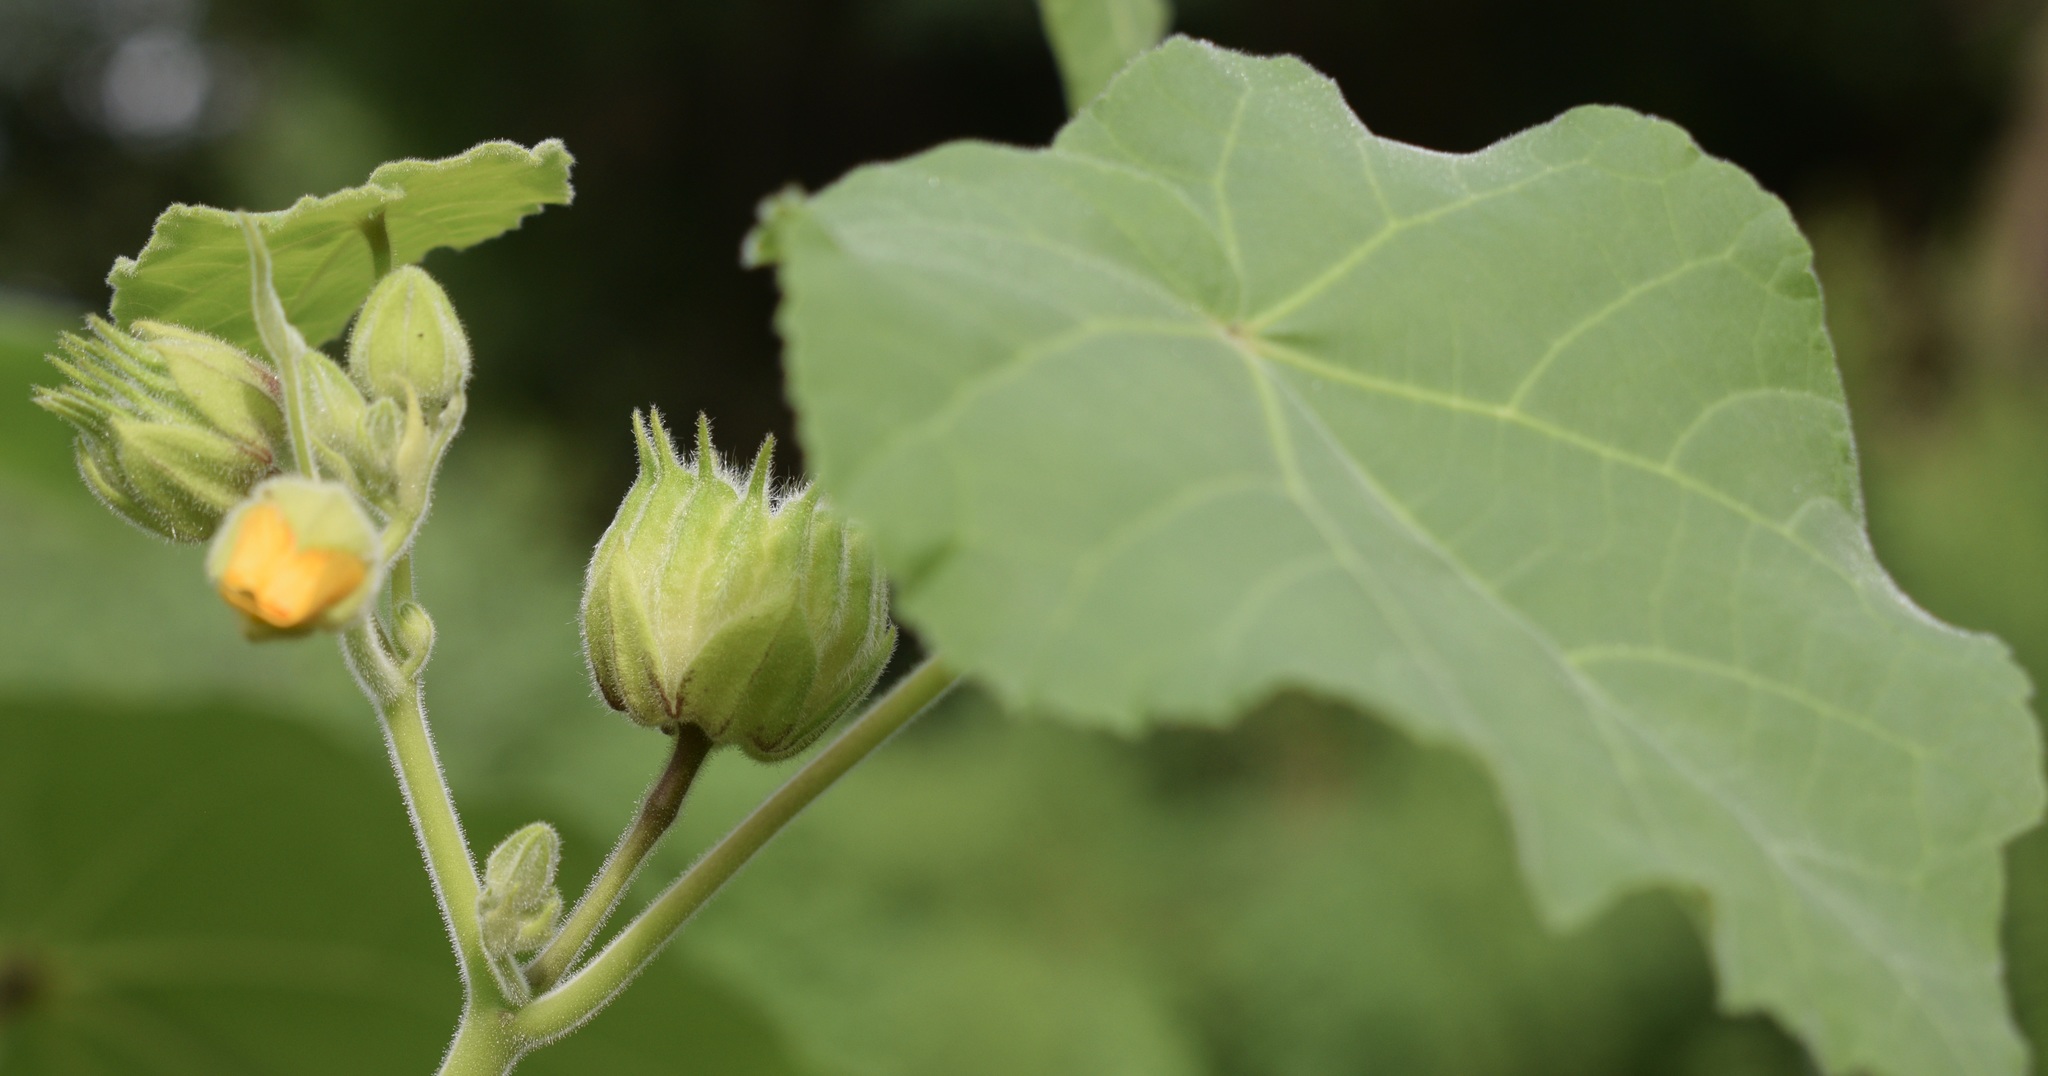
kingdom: Plantae
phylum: Tracheophyta
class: Magnoliopsida
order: Malvales
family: Malvaceae
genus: Abutilon
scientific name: Abutilon theophrasti
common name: Velvetleaf
